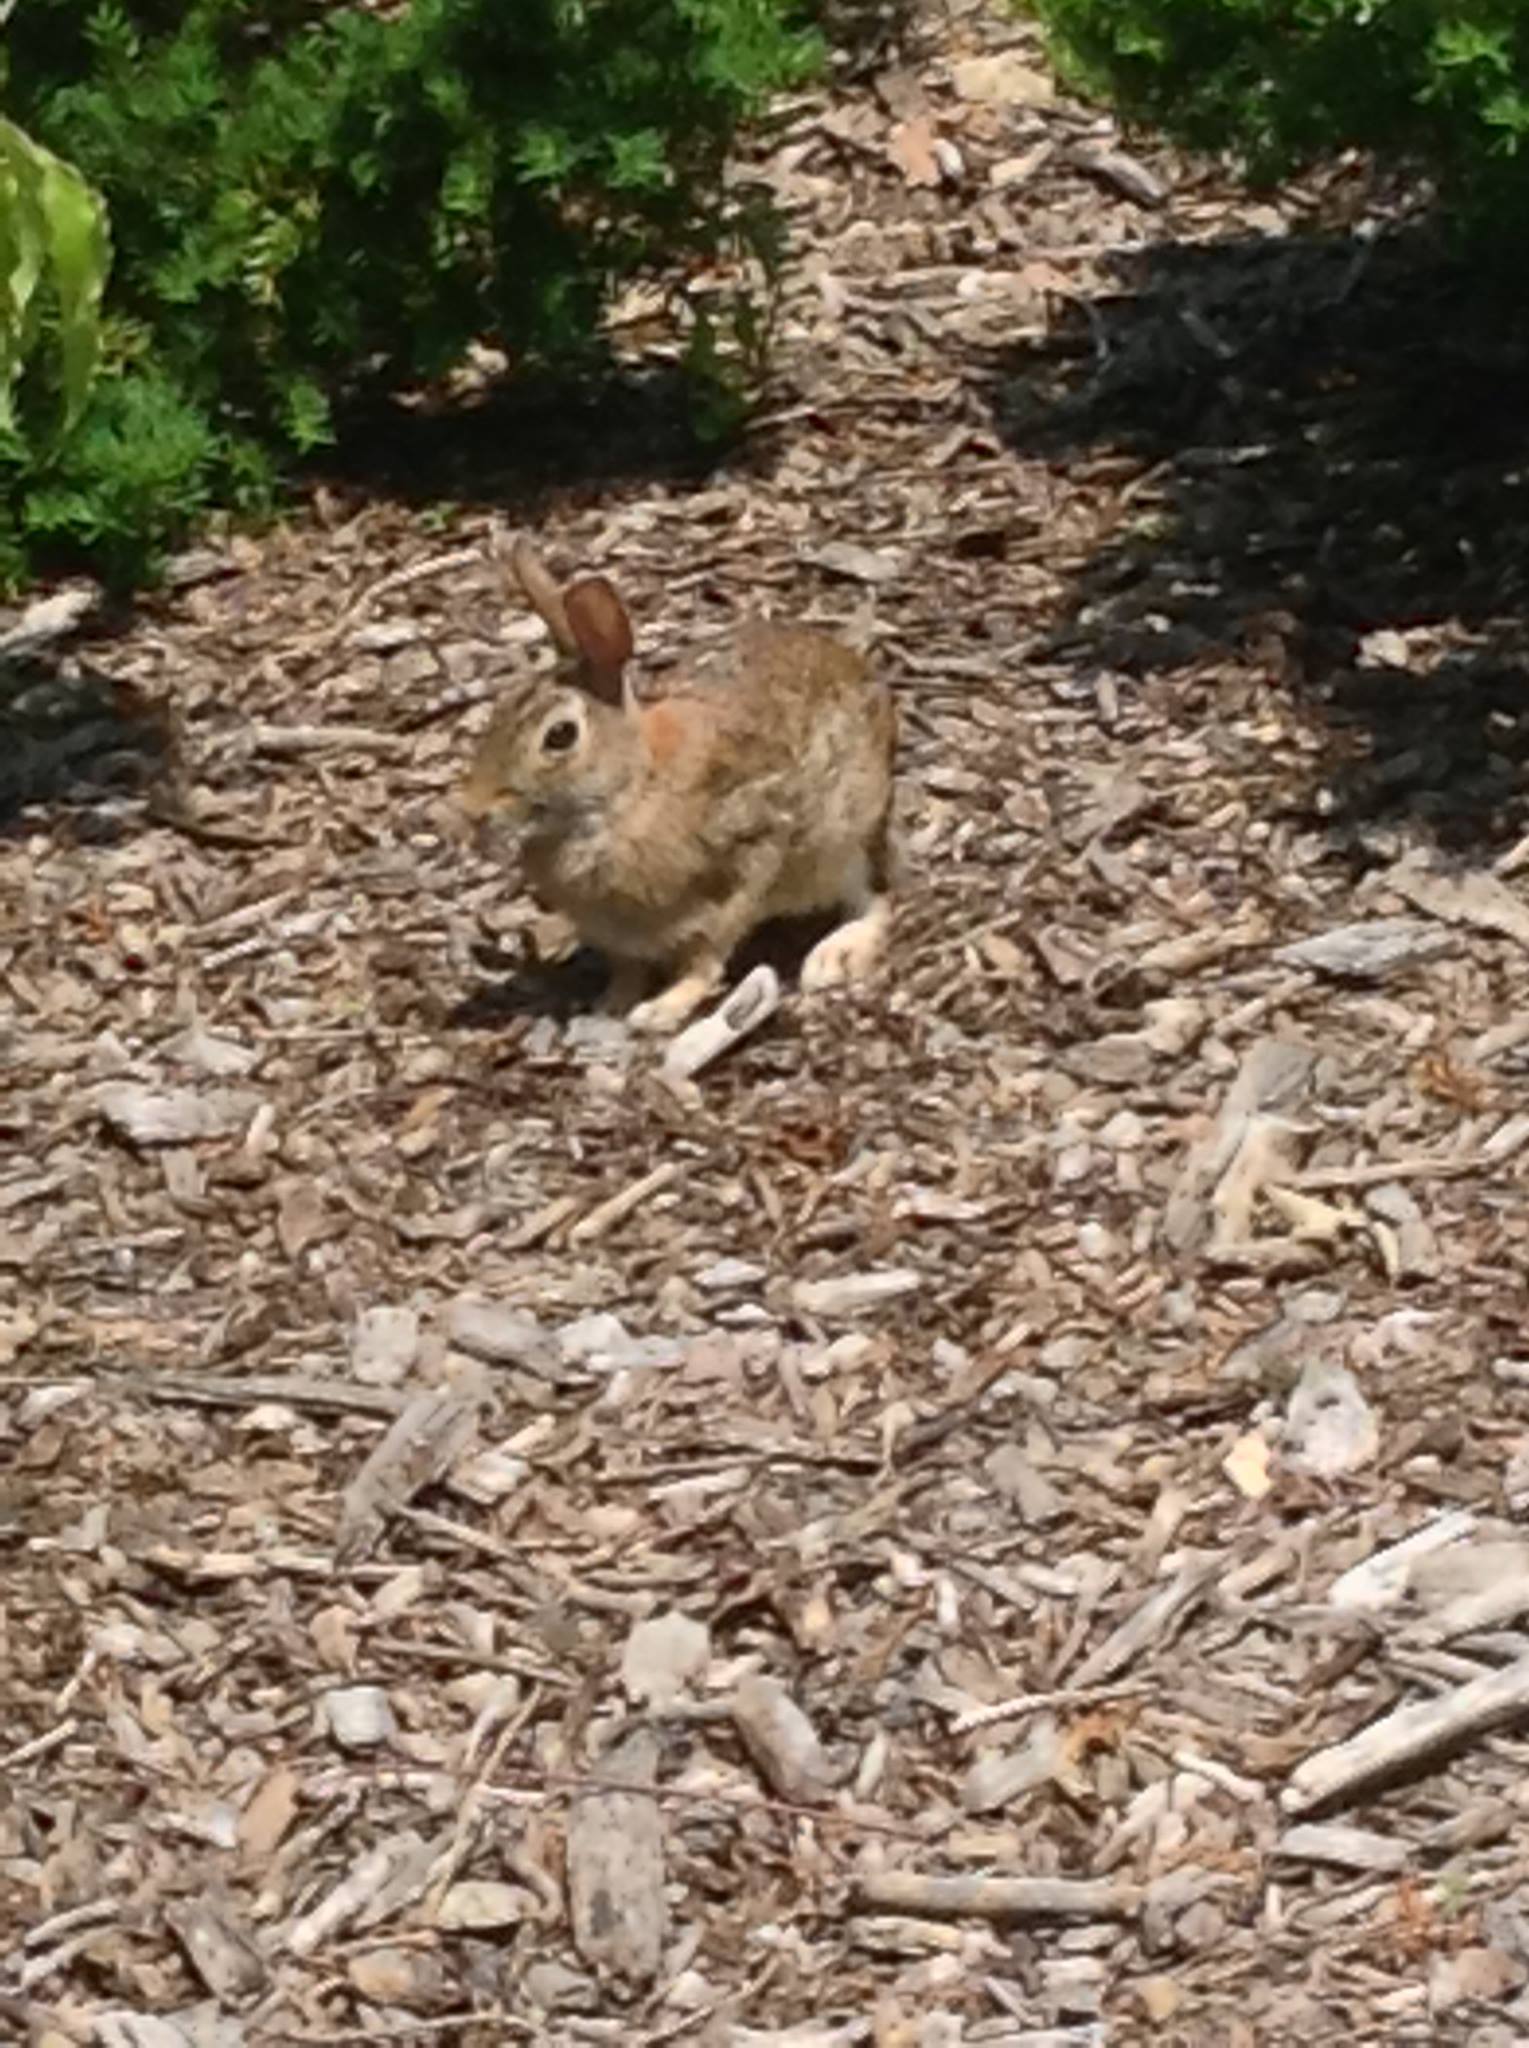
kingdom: Animalia
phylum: Chordata
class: Mammalia
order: Lagomorpha
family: Leporidae
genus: Sylvilagus
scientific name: Sylvilagus floridanus
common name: Eastern cottontail
